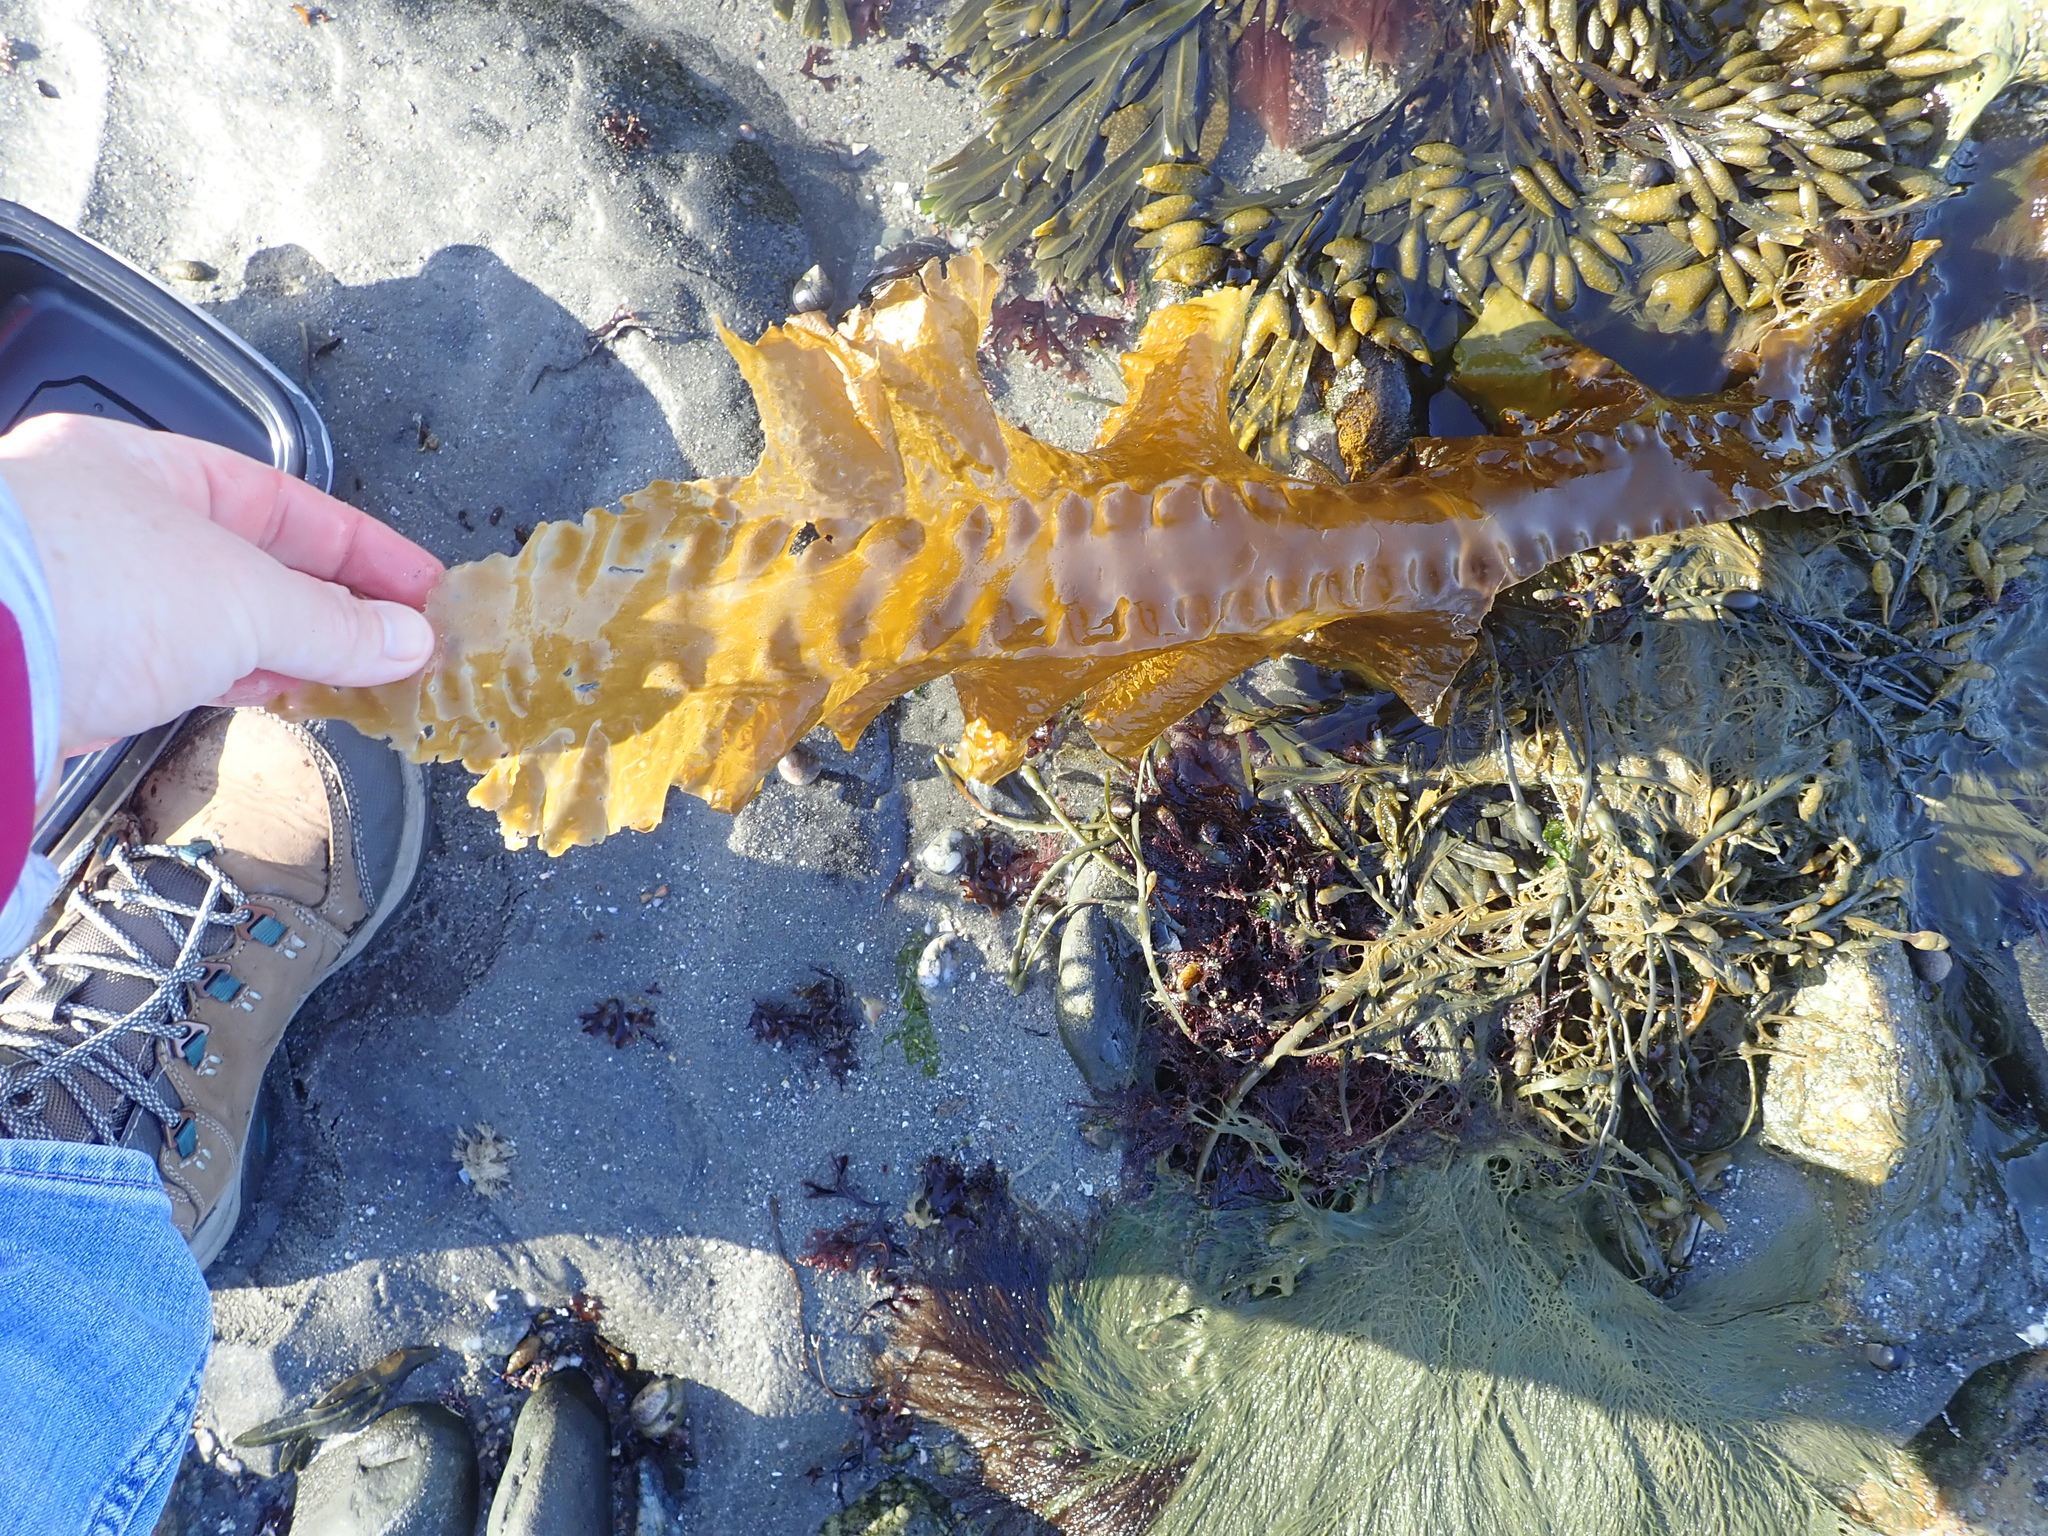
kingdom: Chromista
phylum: Ochrophyta
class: Phaeophyceae
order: Laminariales
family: Laminariaceae
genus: Saccharina
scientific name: Saccharina latissima
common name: Poor man's weather glass
